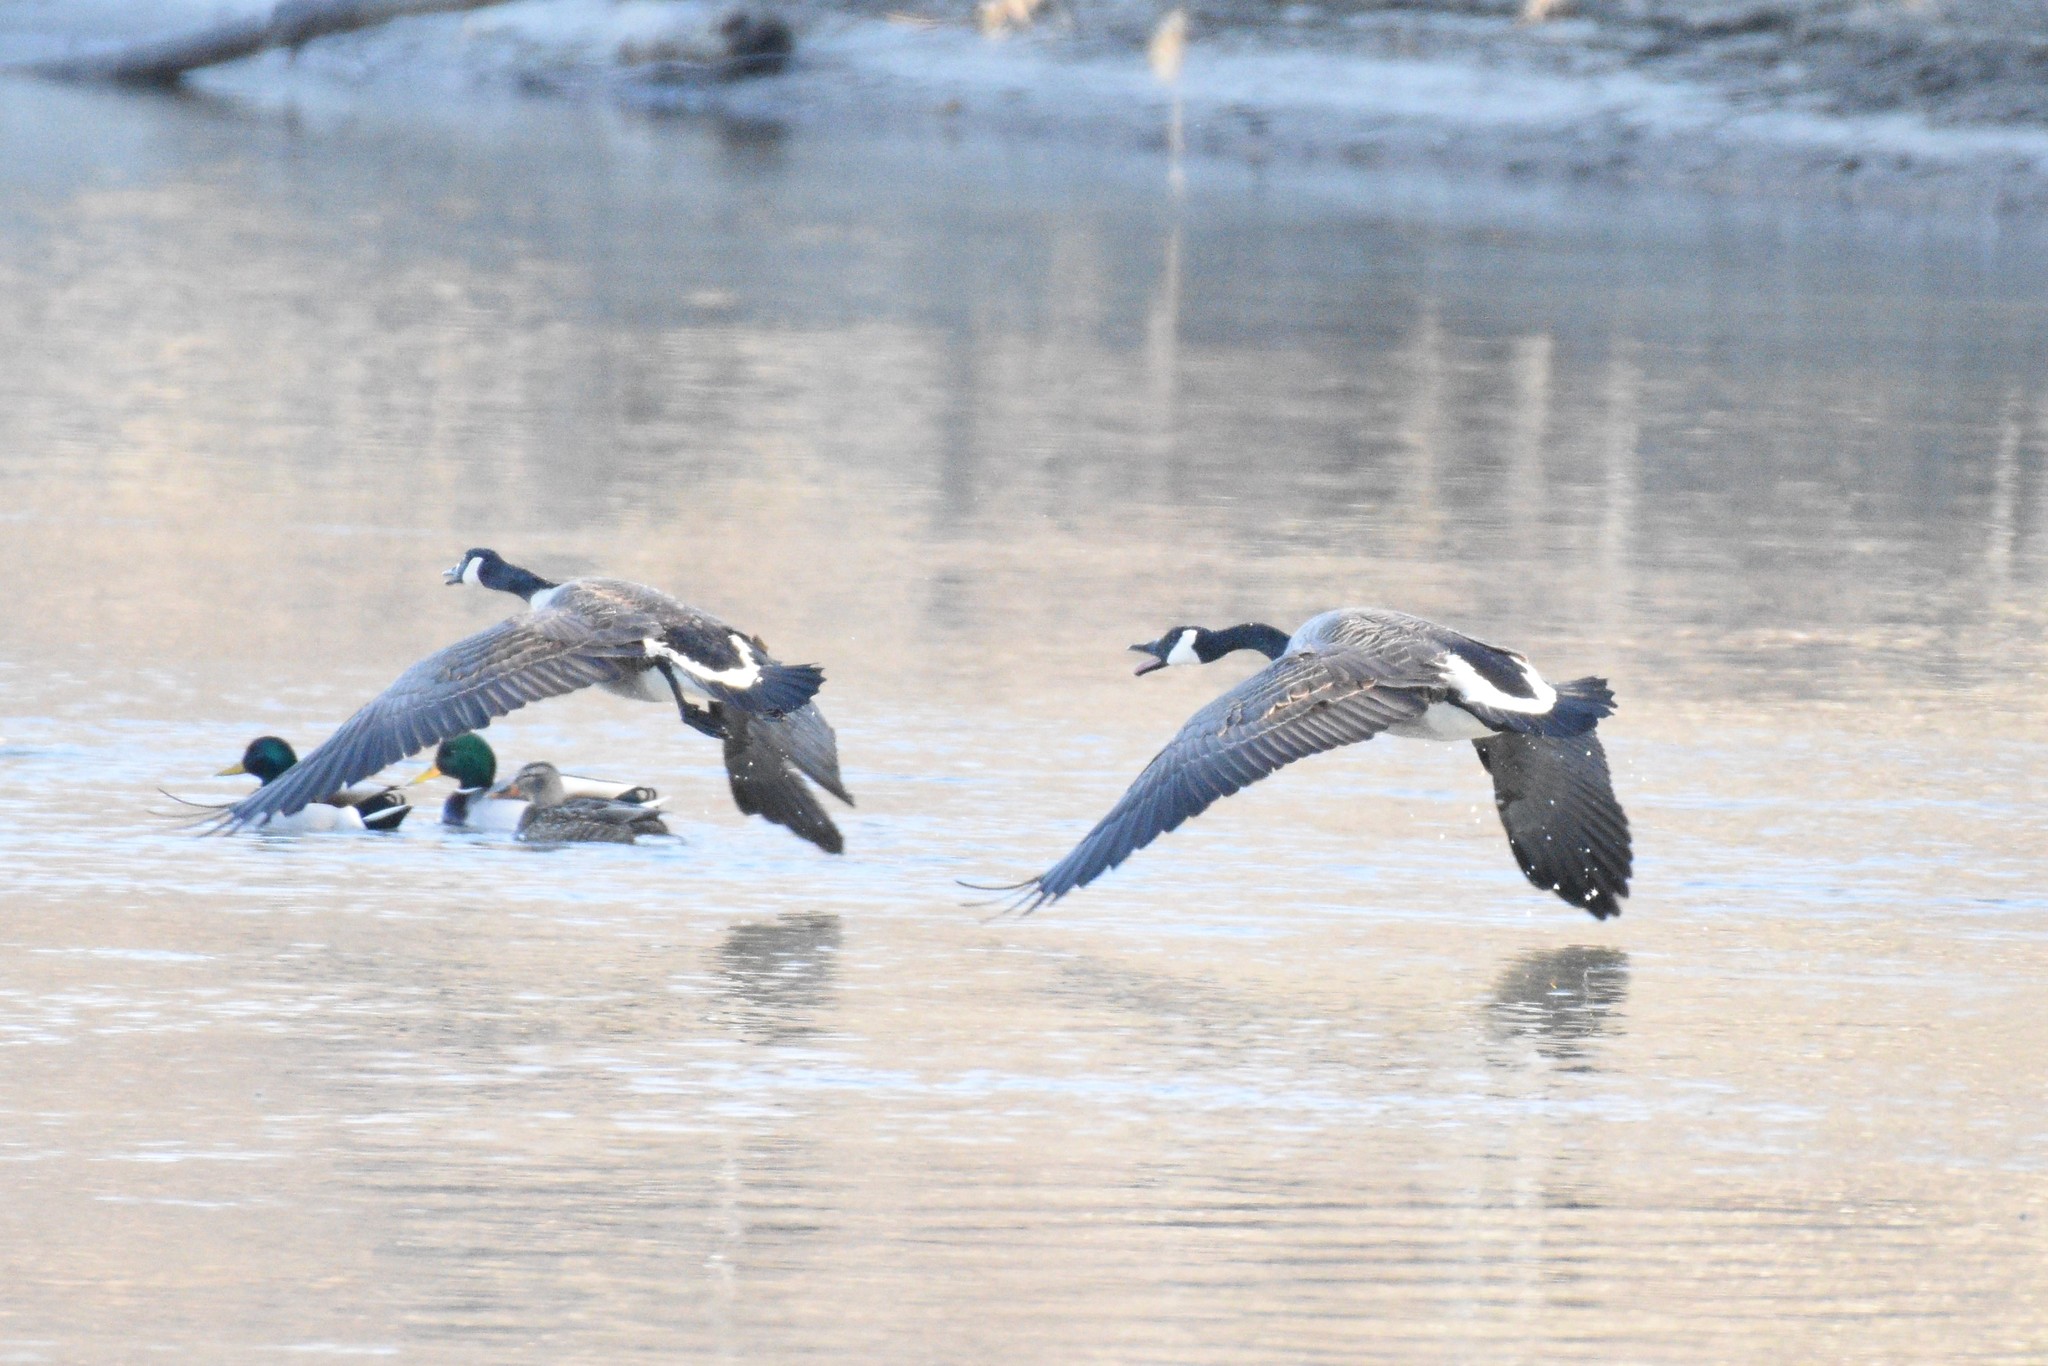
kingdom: Animalia
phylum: Chordata
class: Aves
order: Anseriformes
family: Anatidae
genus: Branta
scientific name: Branta canadensis
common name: Canada goose
